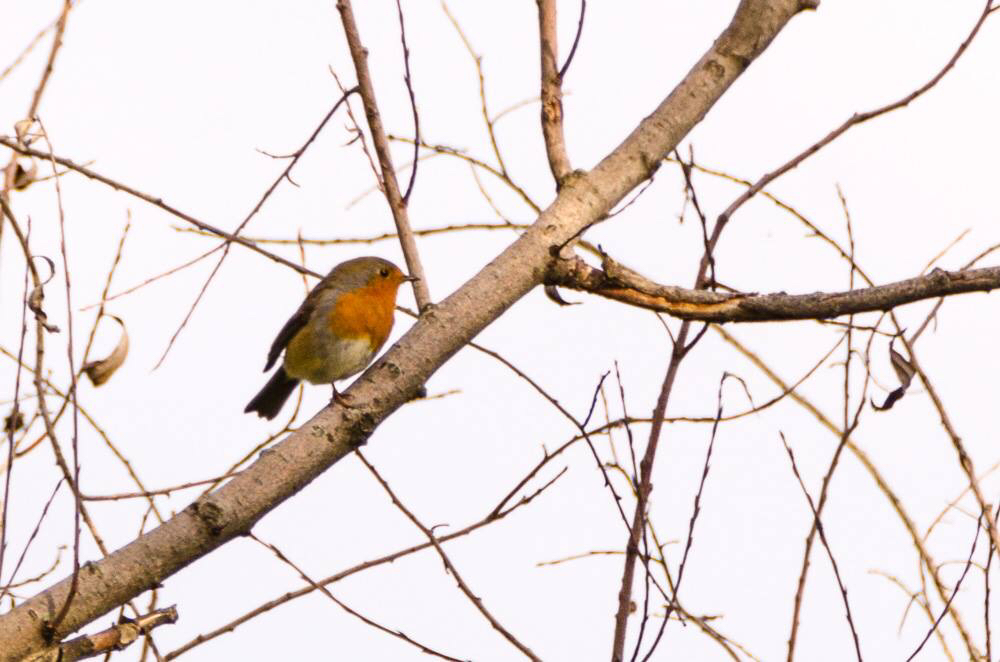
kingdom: Animalia
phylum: Chordata
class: Aves
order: Passeriformes
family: Muscicapidae
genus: Erithacus
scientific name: Erithacus rubecula
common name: European robin
